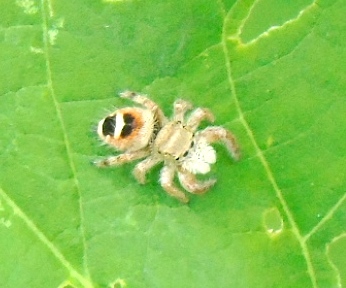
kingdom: Animalia
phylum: Arthropoda
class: Arachnida
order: Araneae
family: Salticidae
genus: Phidippus
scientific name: Phidippus pacosauritus
